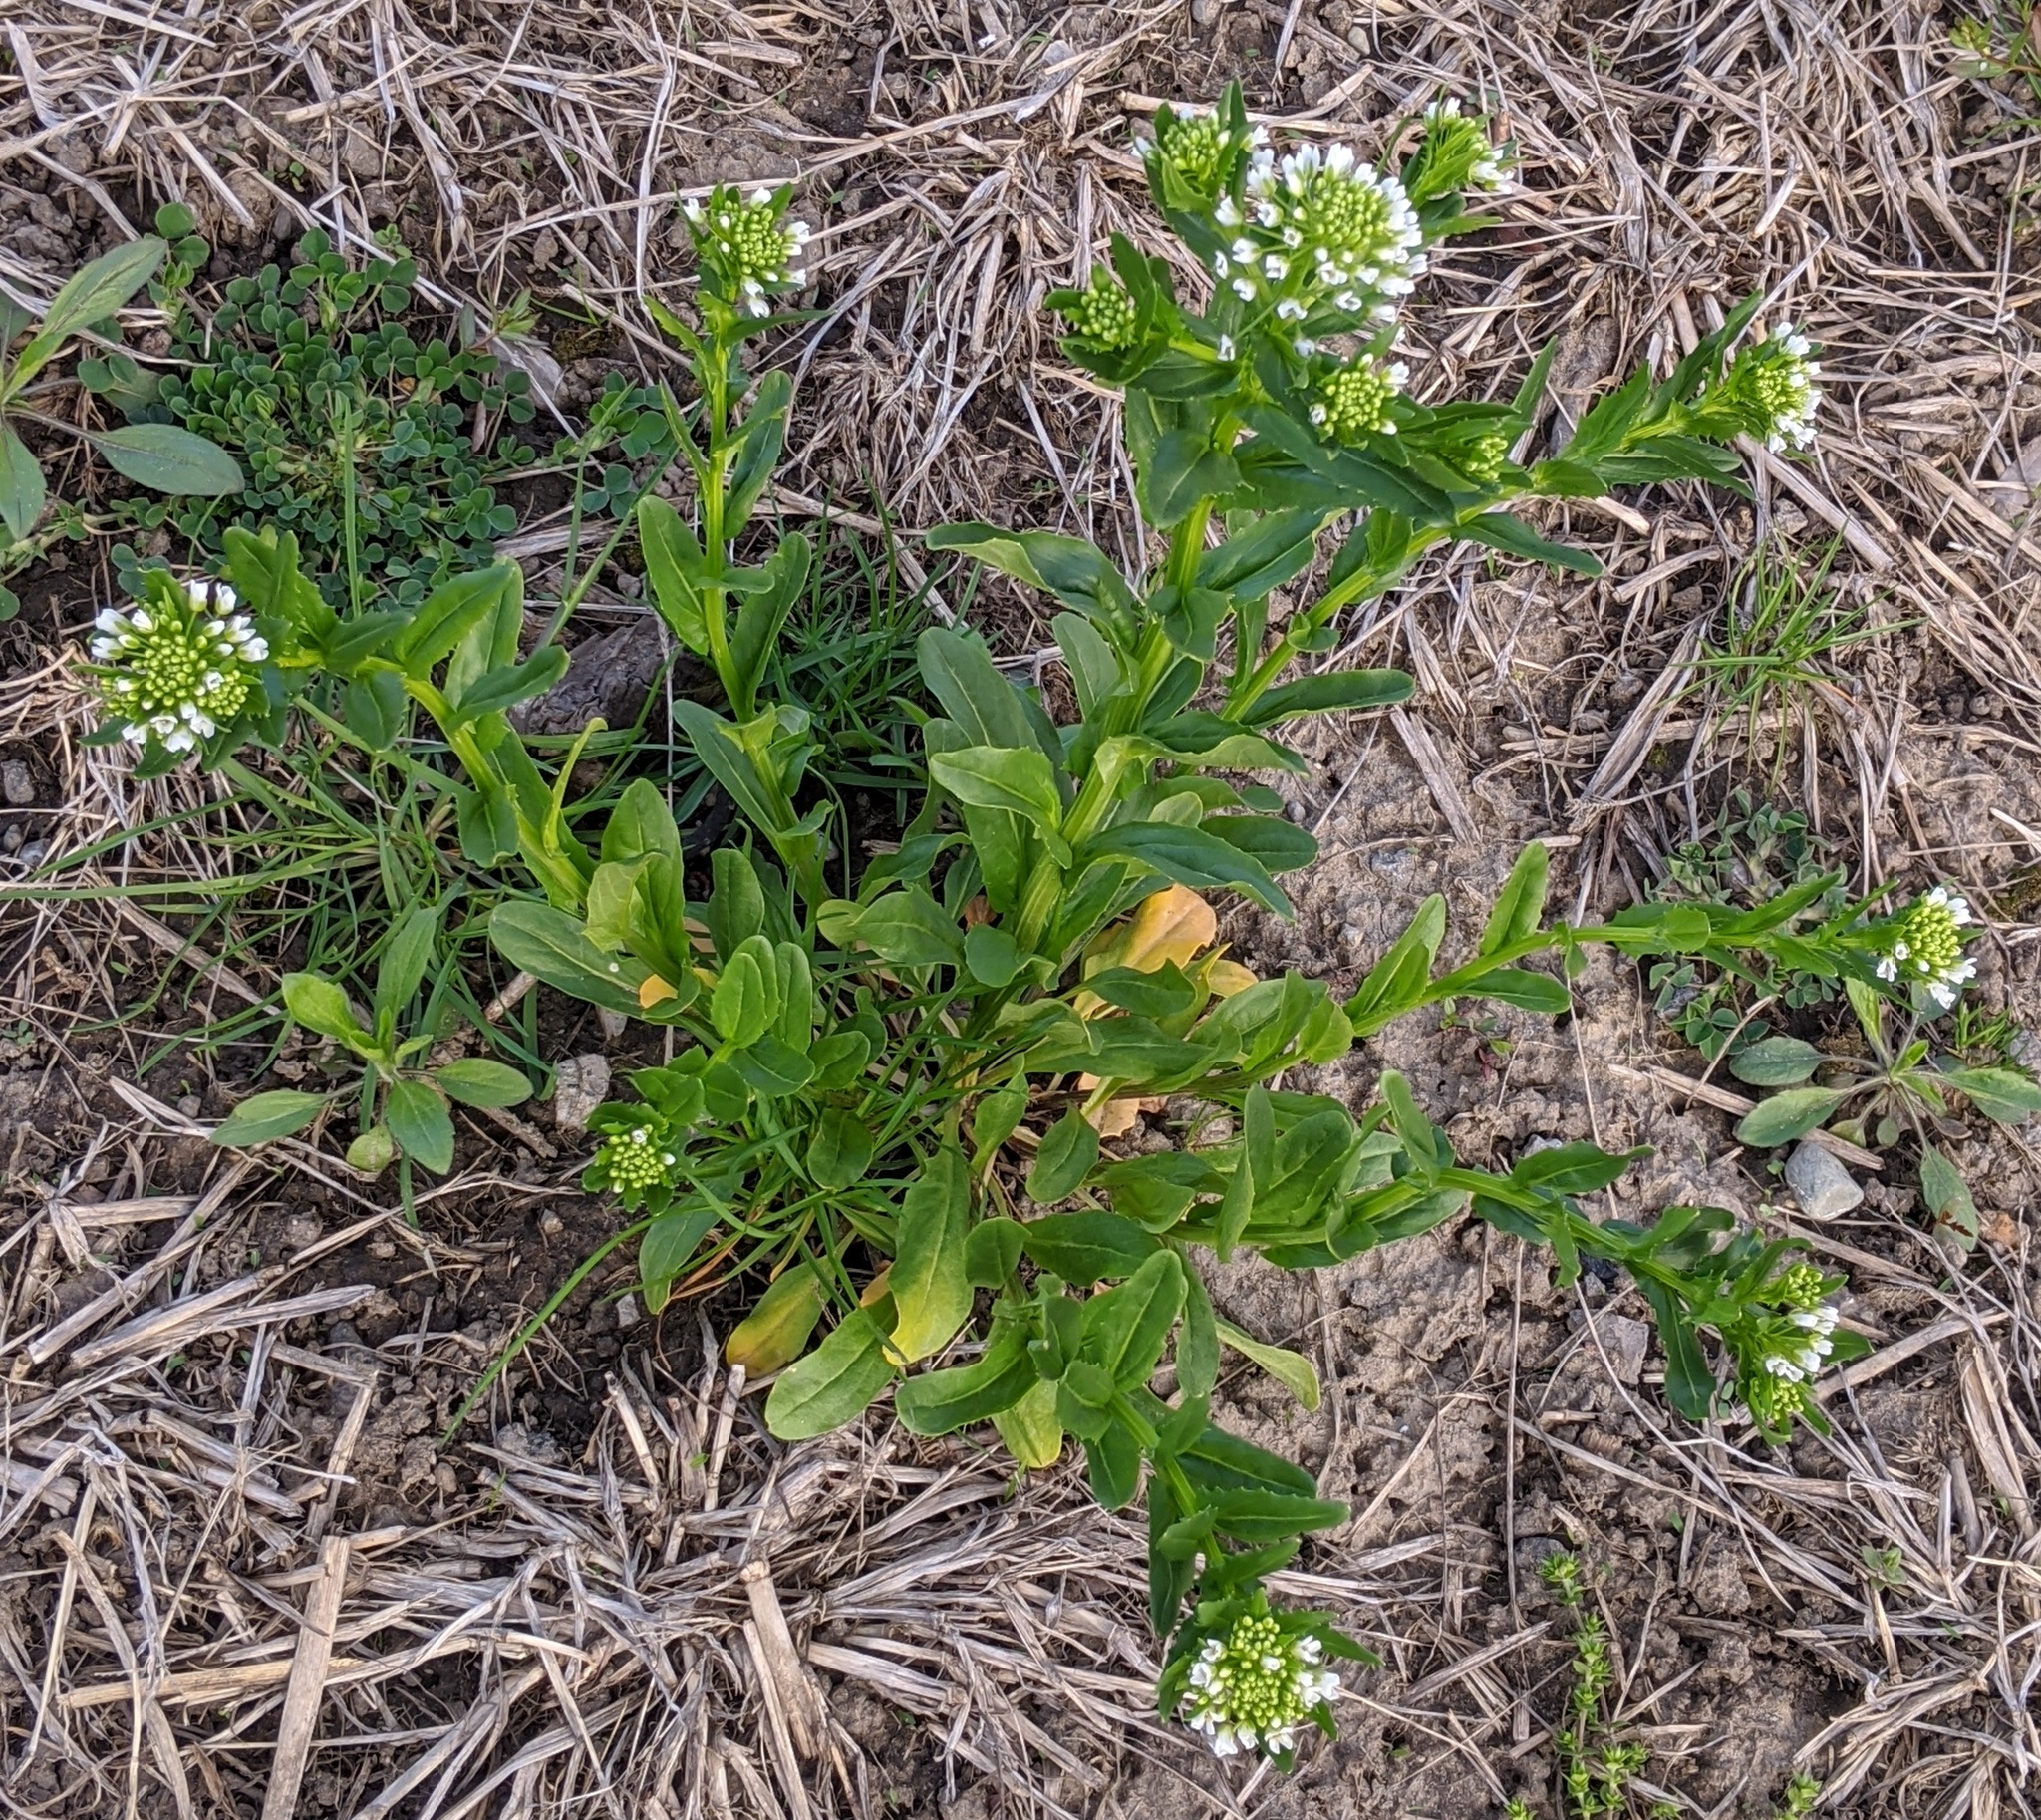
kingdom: Plantae
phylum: Tracheophyta
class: Magnoliopsida
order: Brassicales
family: Brassicaceae
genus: Thlaspi
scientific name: Thlaspi arvense
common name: Field pennycress
